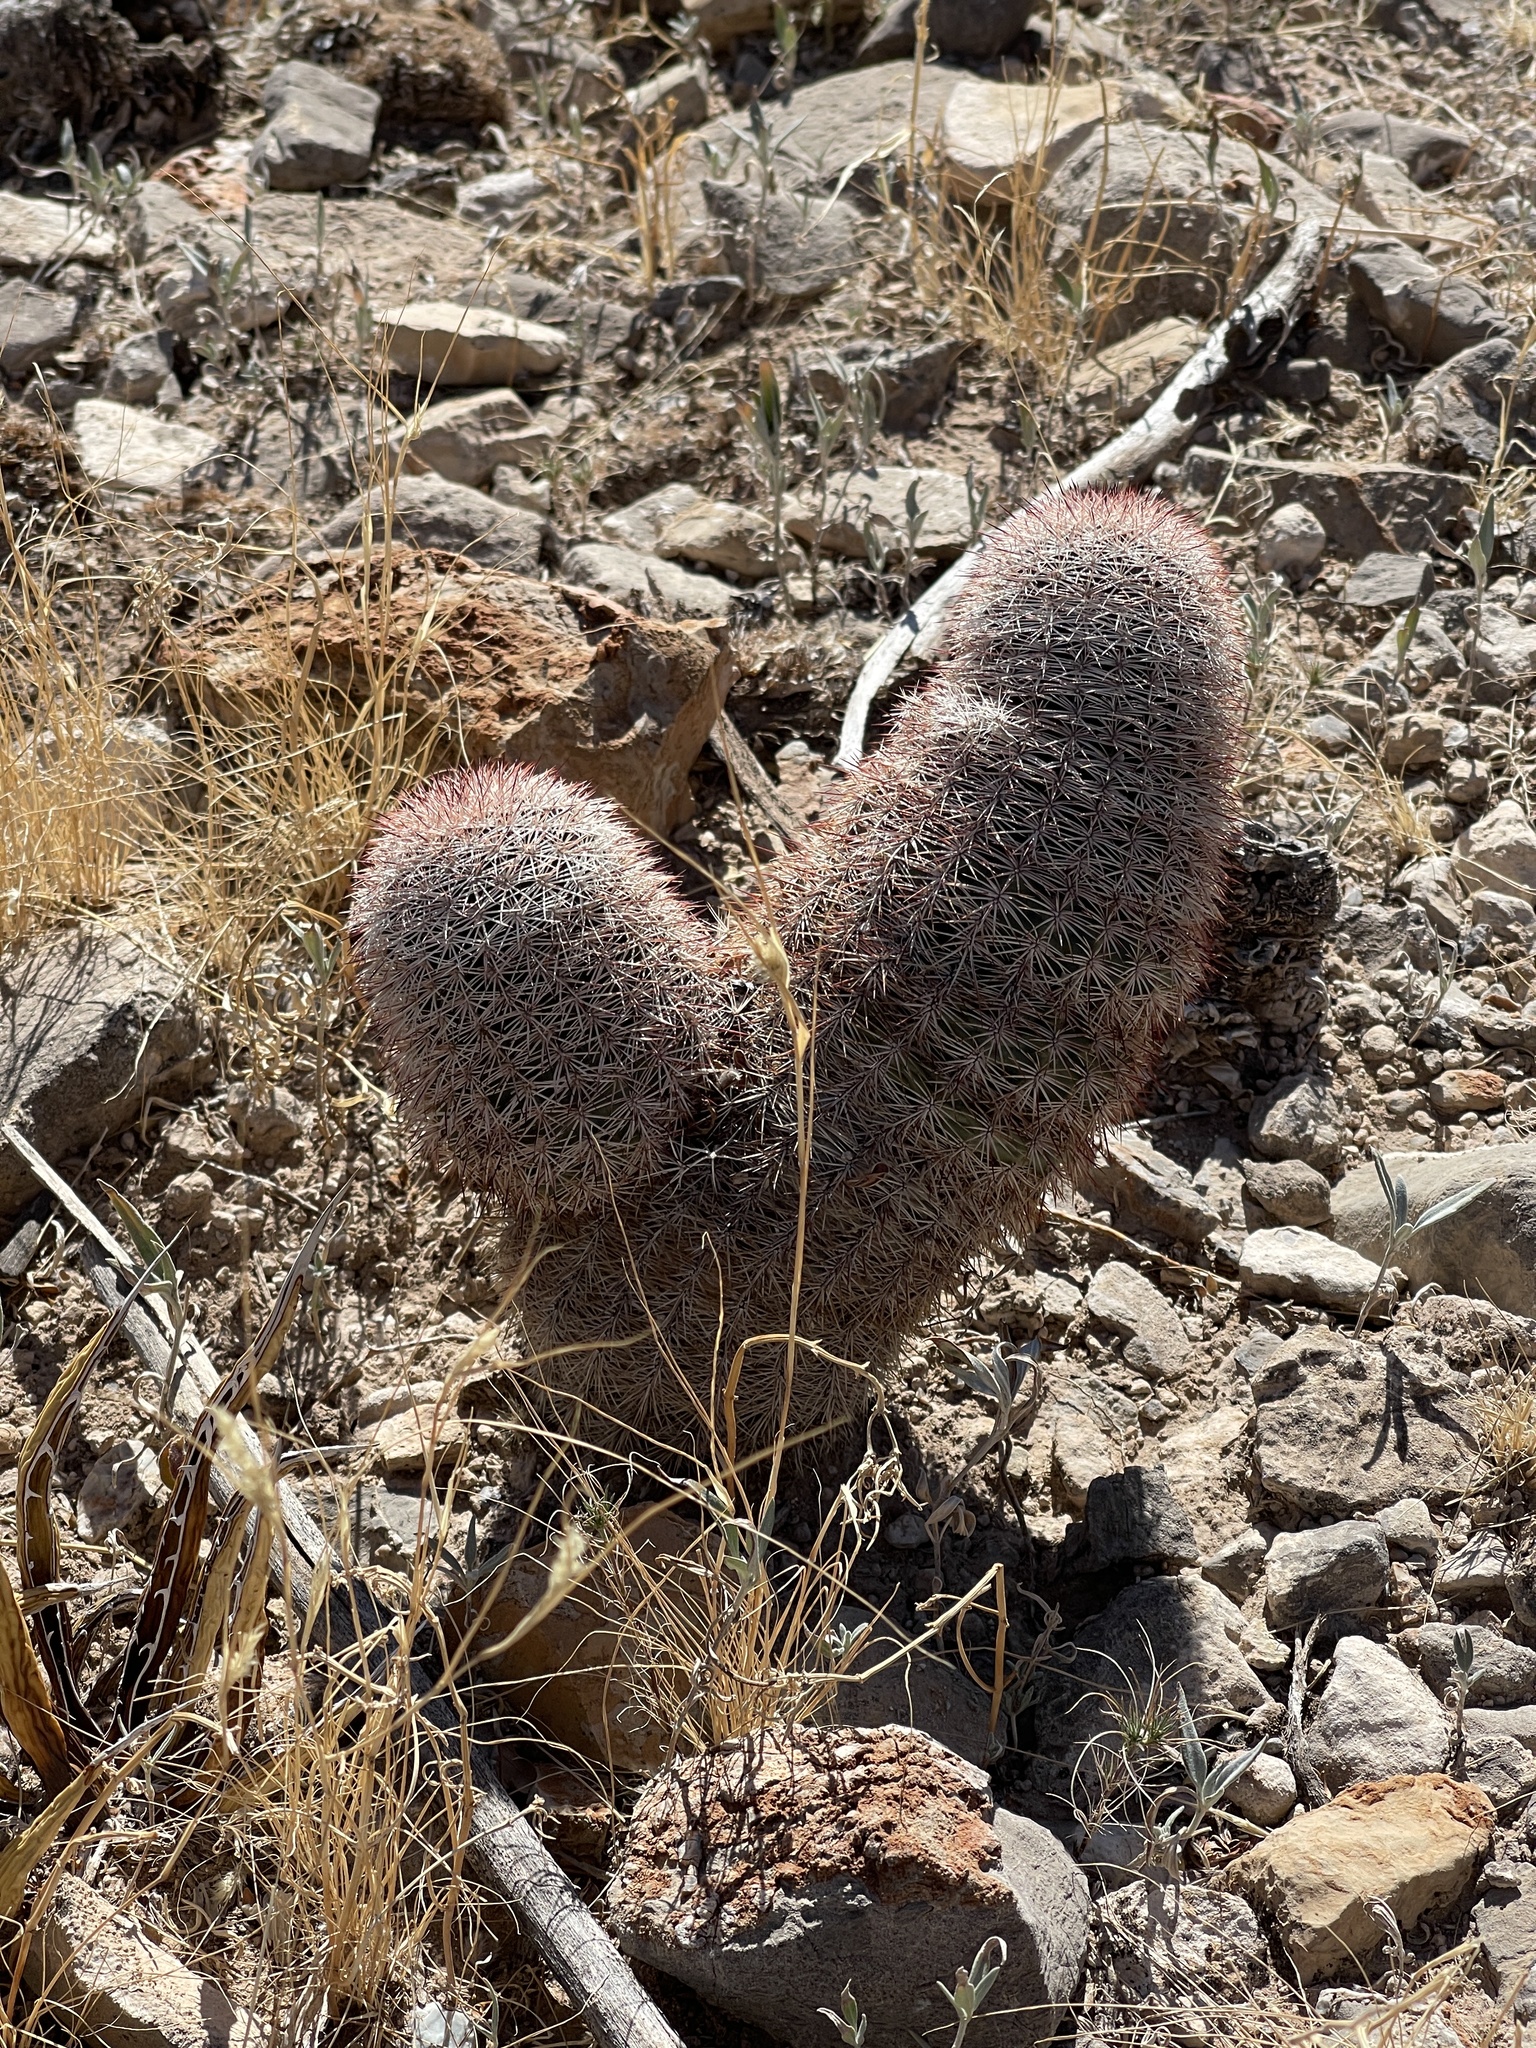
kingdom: Plantae
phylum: Tracheophyta
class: Magnoliopsida
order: Caryophyllales
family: Cactaceae
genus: Echinocereus
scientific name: Echinocereus dasyacanthus
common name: Spiny hedgehog cactus
